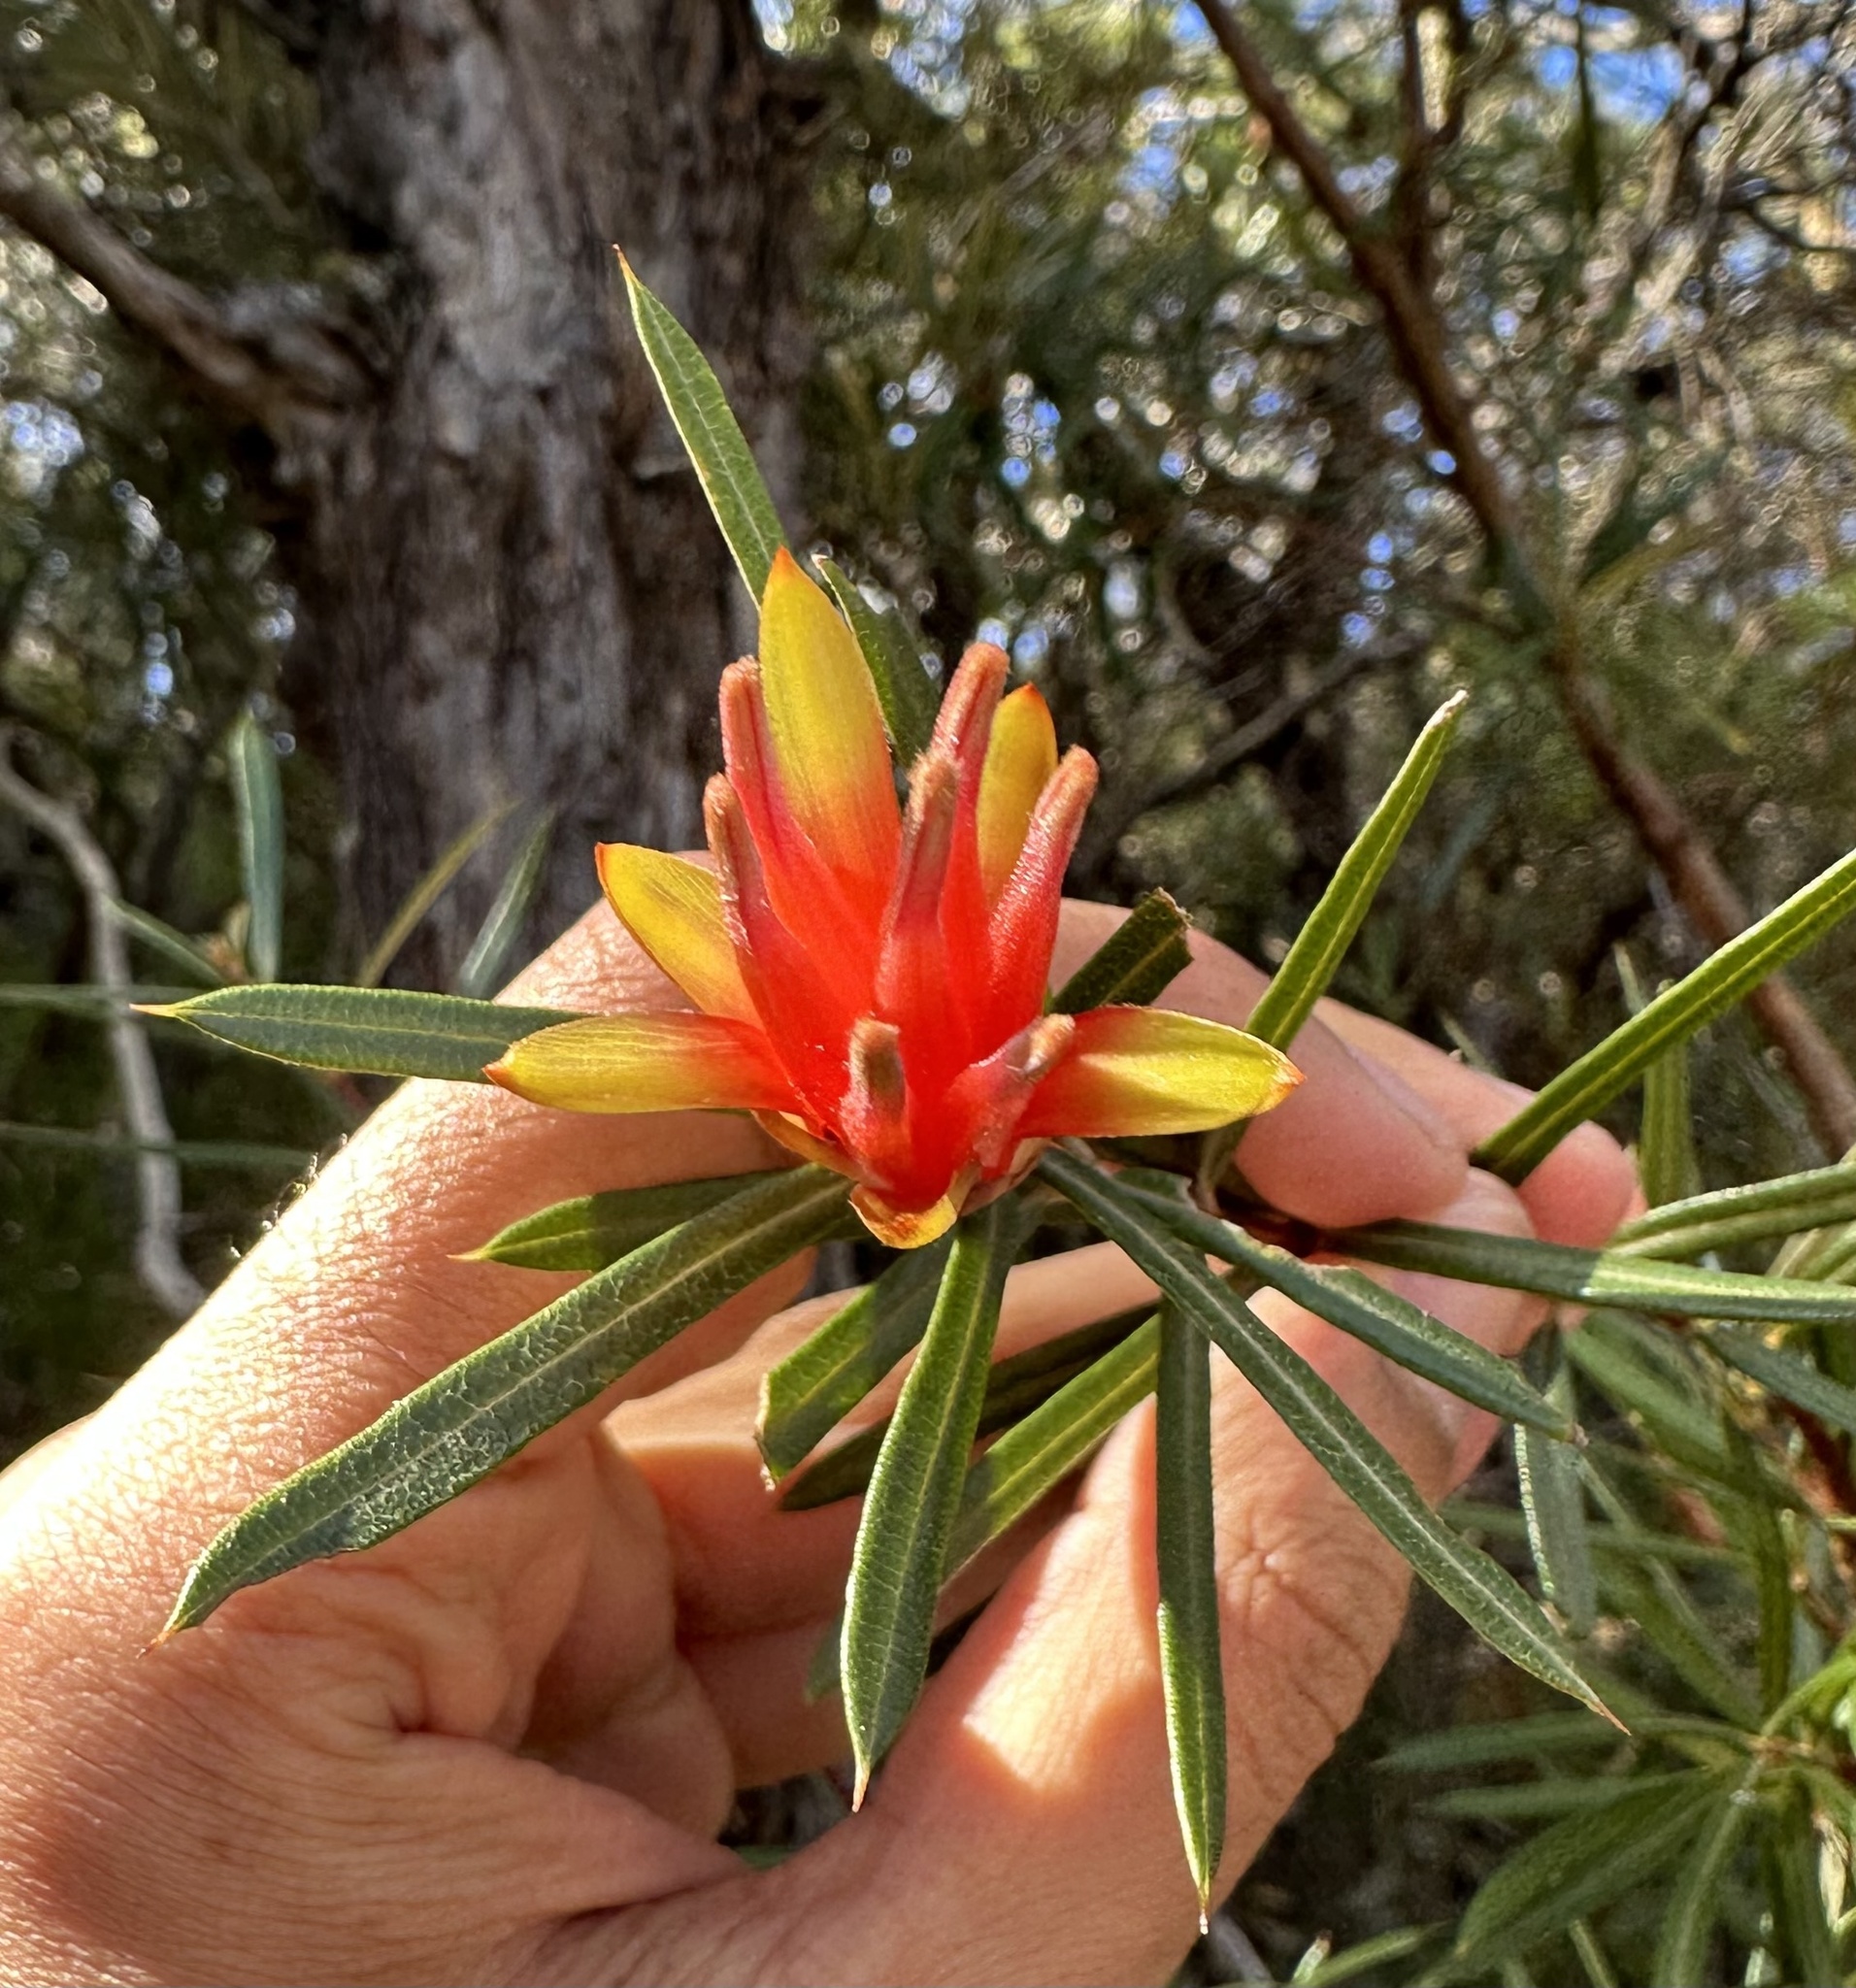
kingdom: Plantae
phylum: Tracheophyta
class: Magnoliopsida
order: Proteales
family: Proteaceae
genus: Lambertia
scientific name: Lambertia formosa
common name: Mountain-devil
